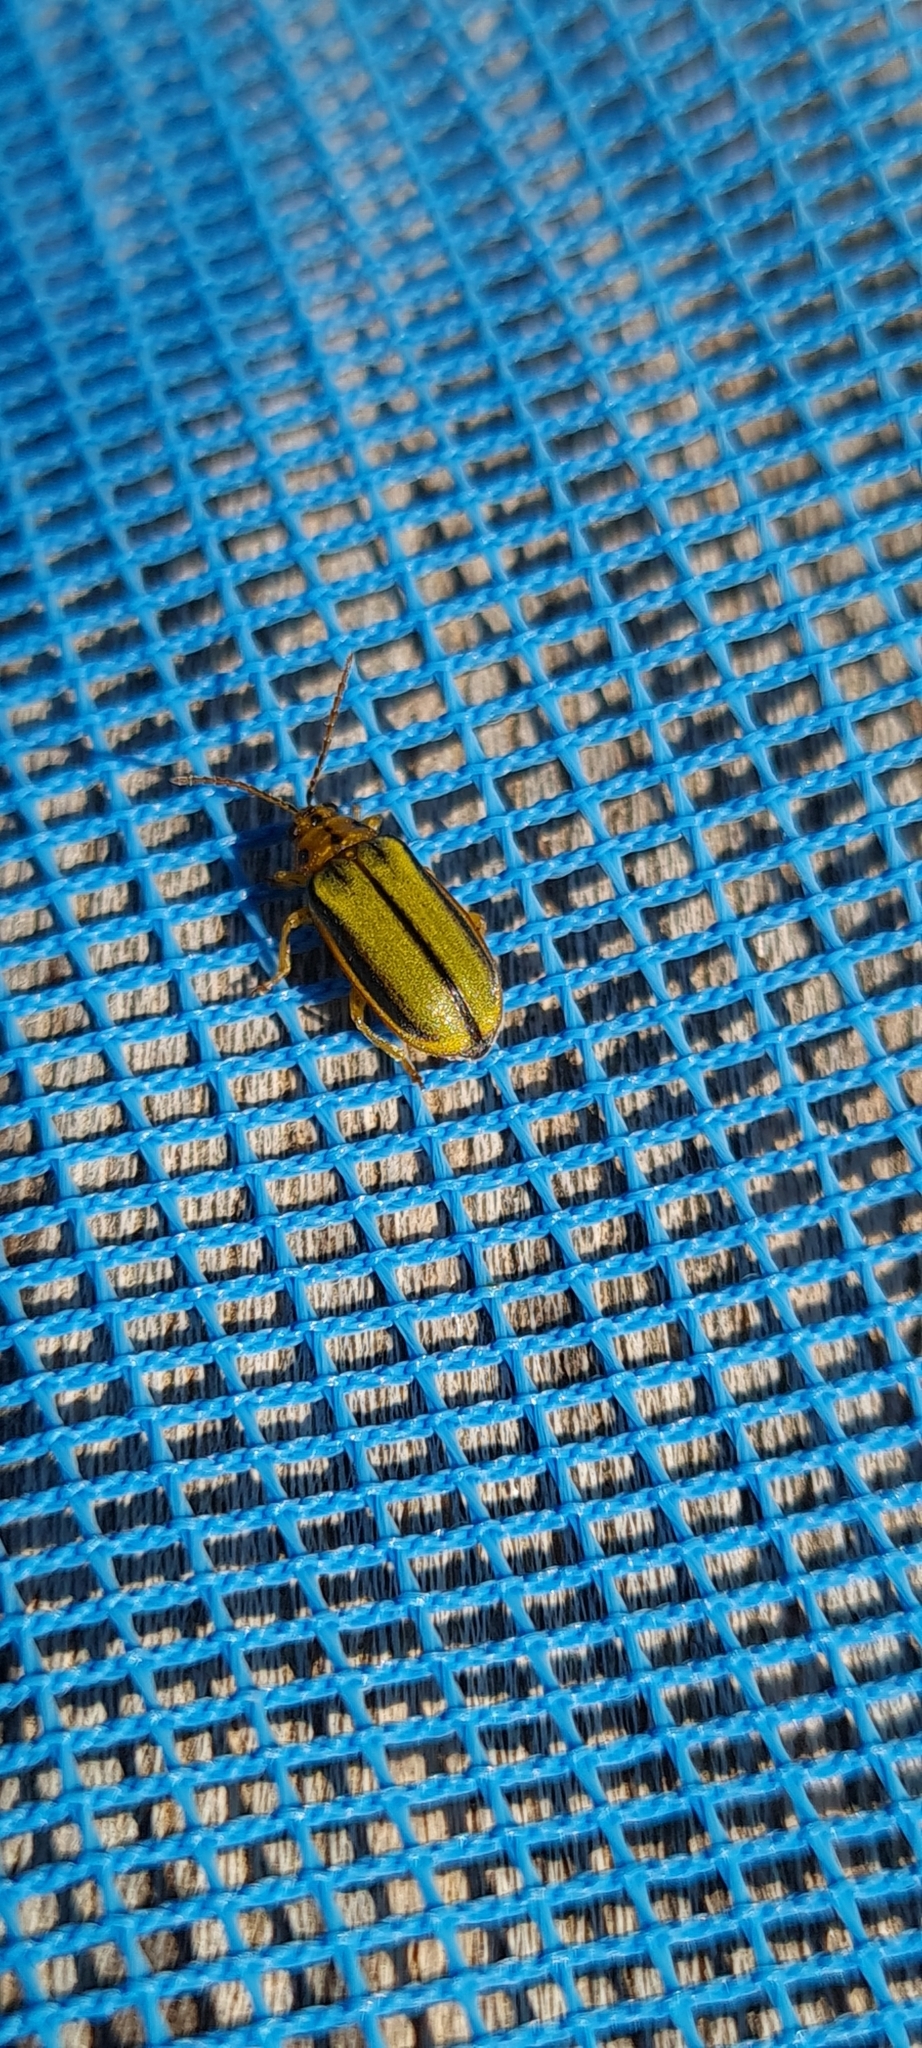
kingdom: Animalia
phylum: Arthropoda
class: Insecta
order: Coleoptera
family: Chrysomelidae
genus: Xanthogaleruca
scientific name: Xanthogaleruca luteola
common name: Elm leaf beetle
